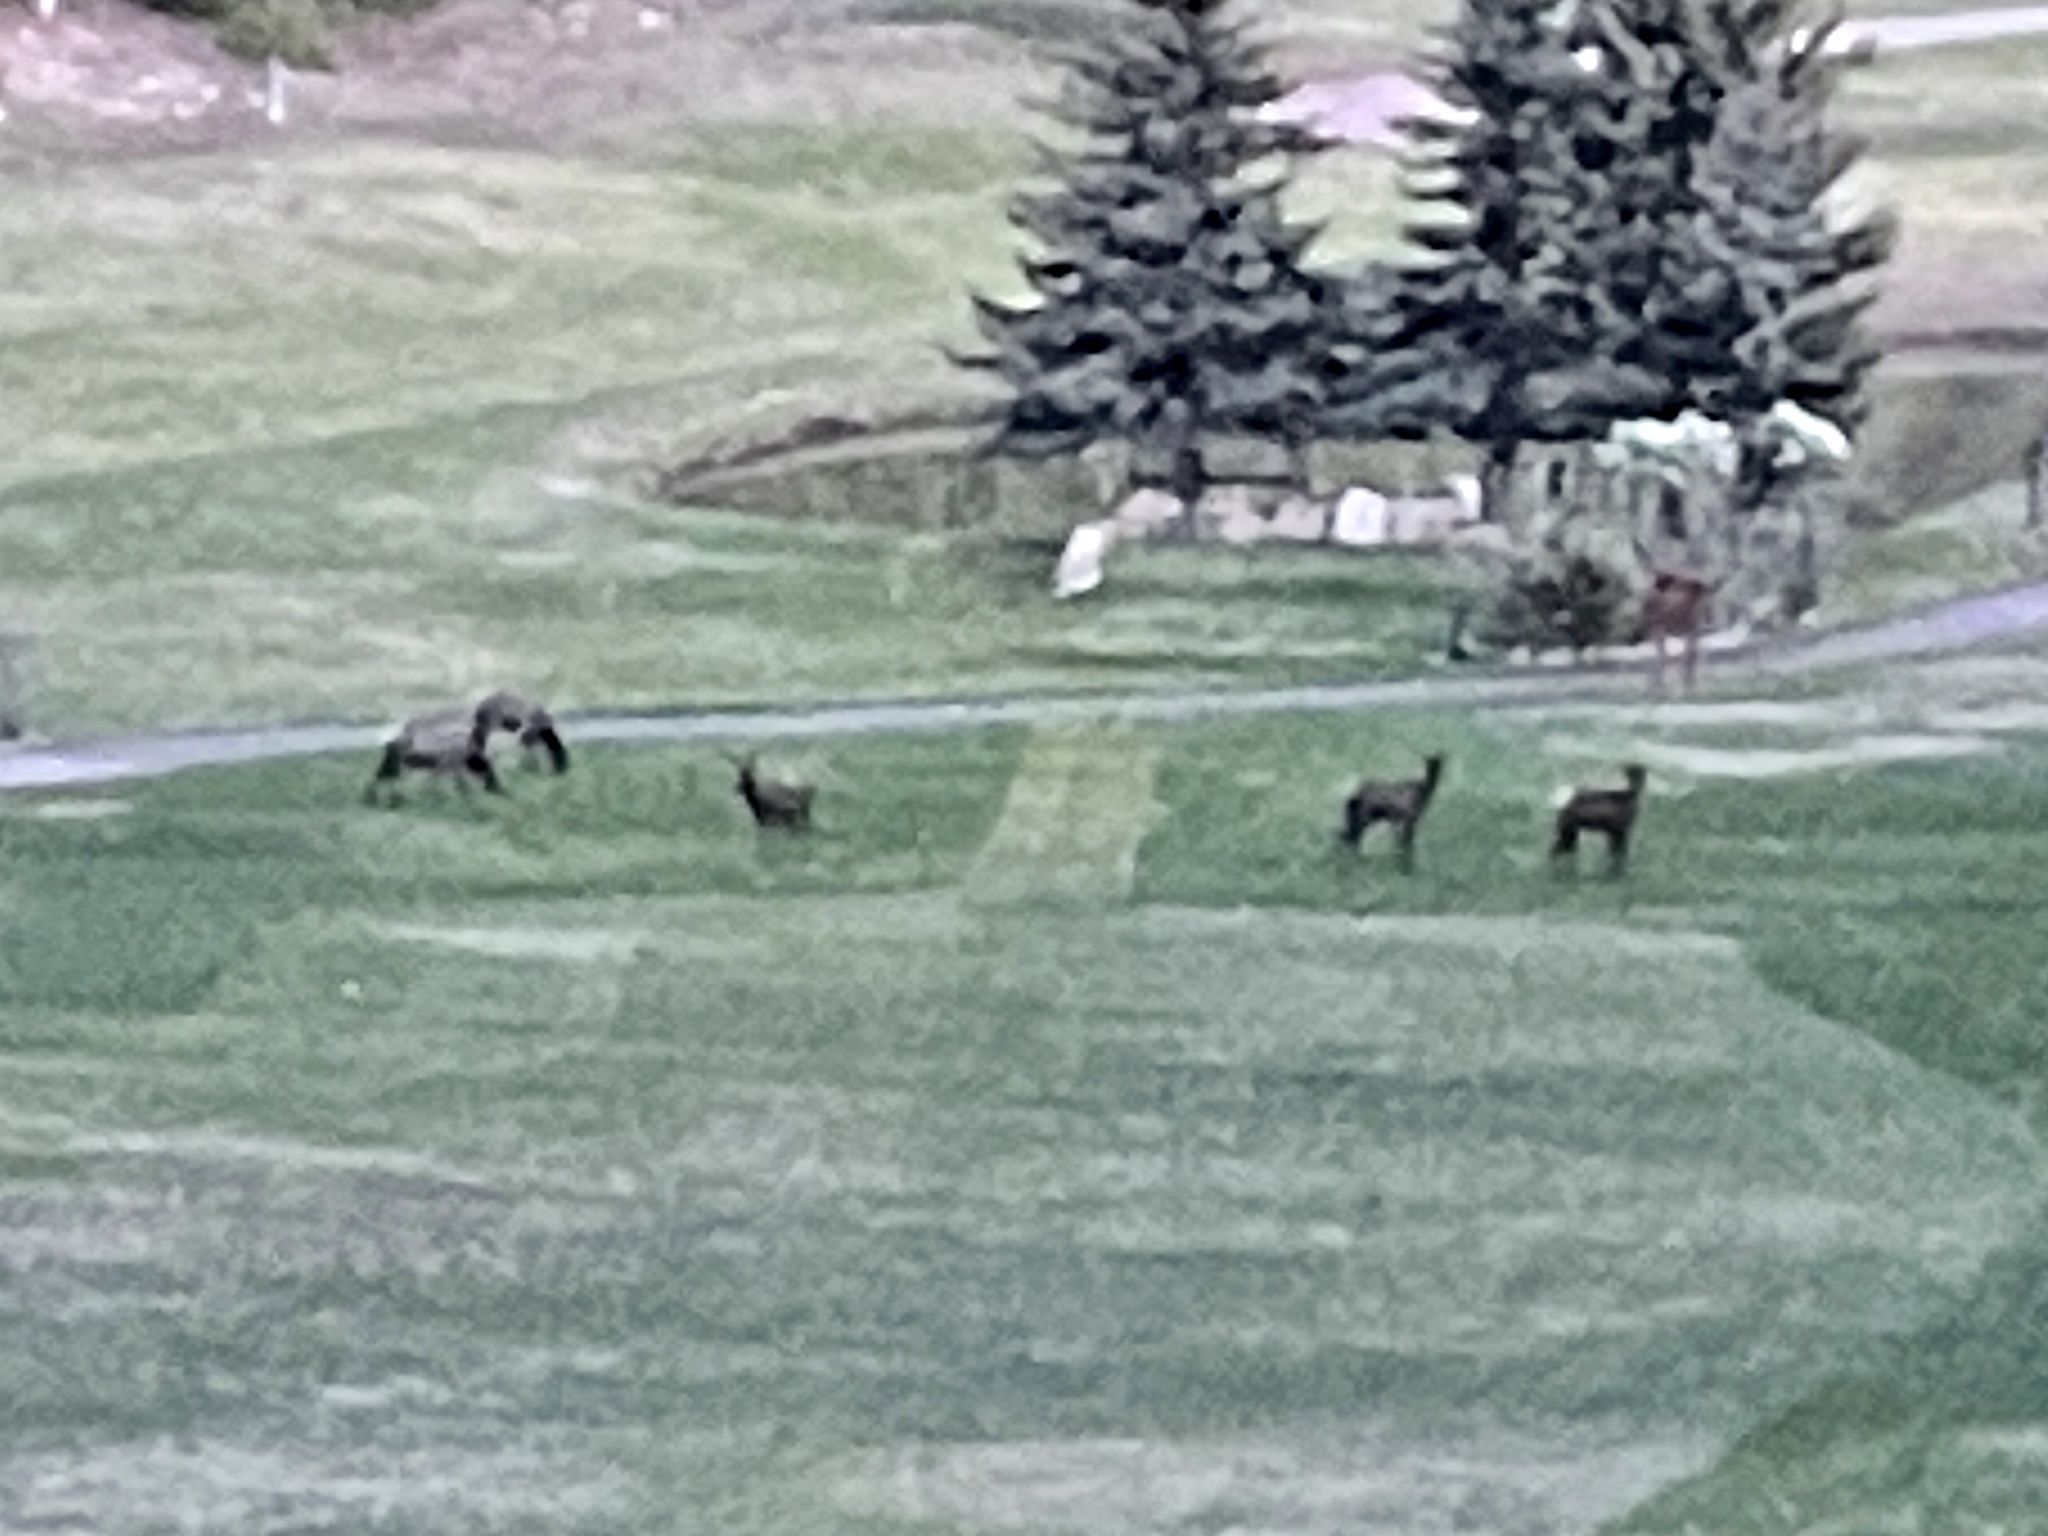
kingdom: Animalia
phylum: Chordata
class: Mammalia
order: Artiodactyla
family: Cervidae
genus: Cervus
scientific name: Cervus elaphus
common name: Red deer
